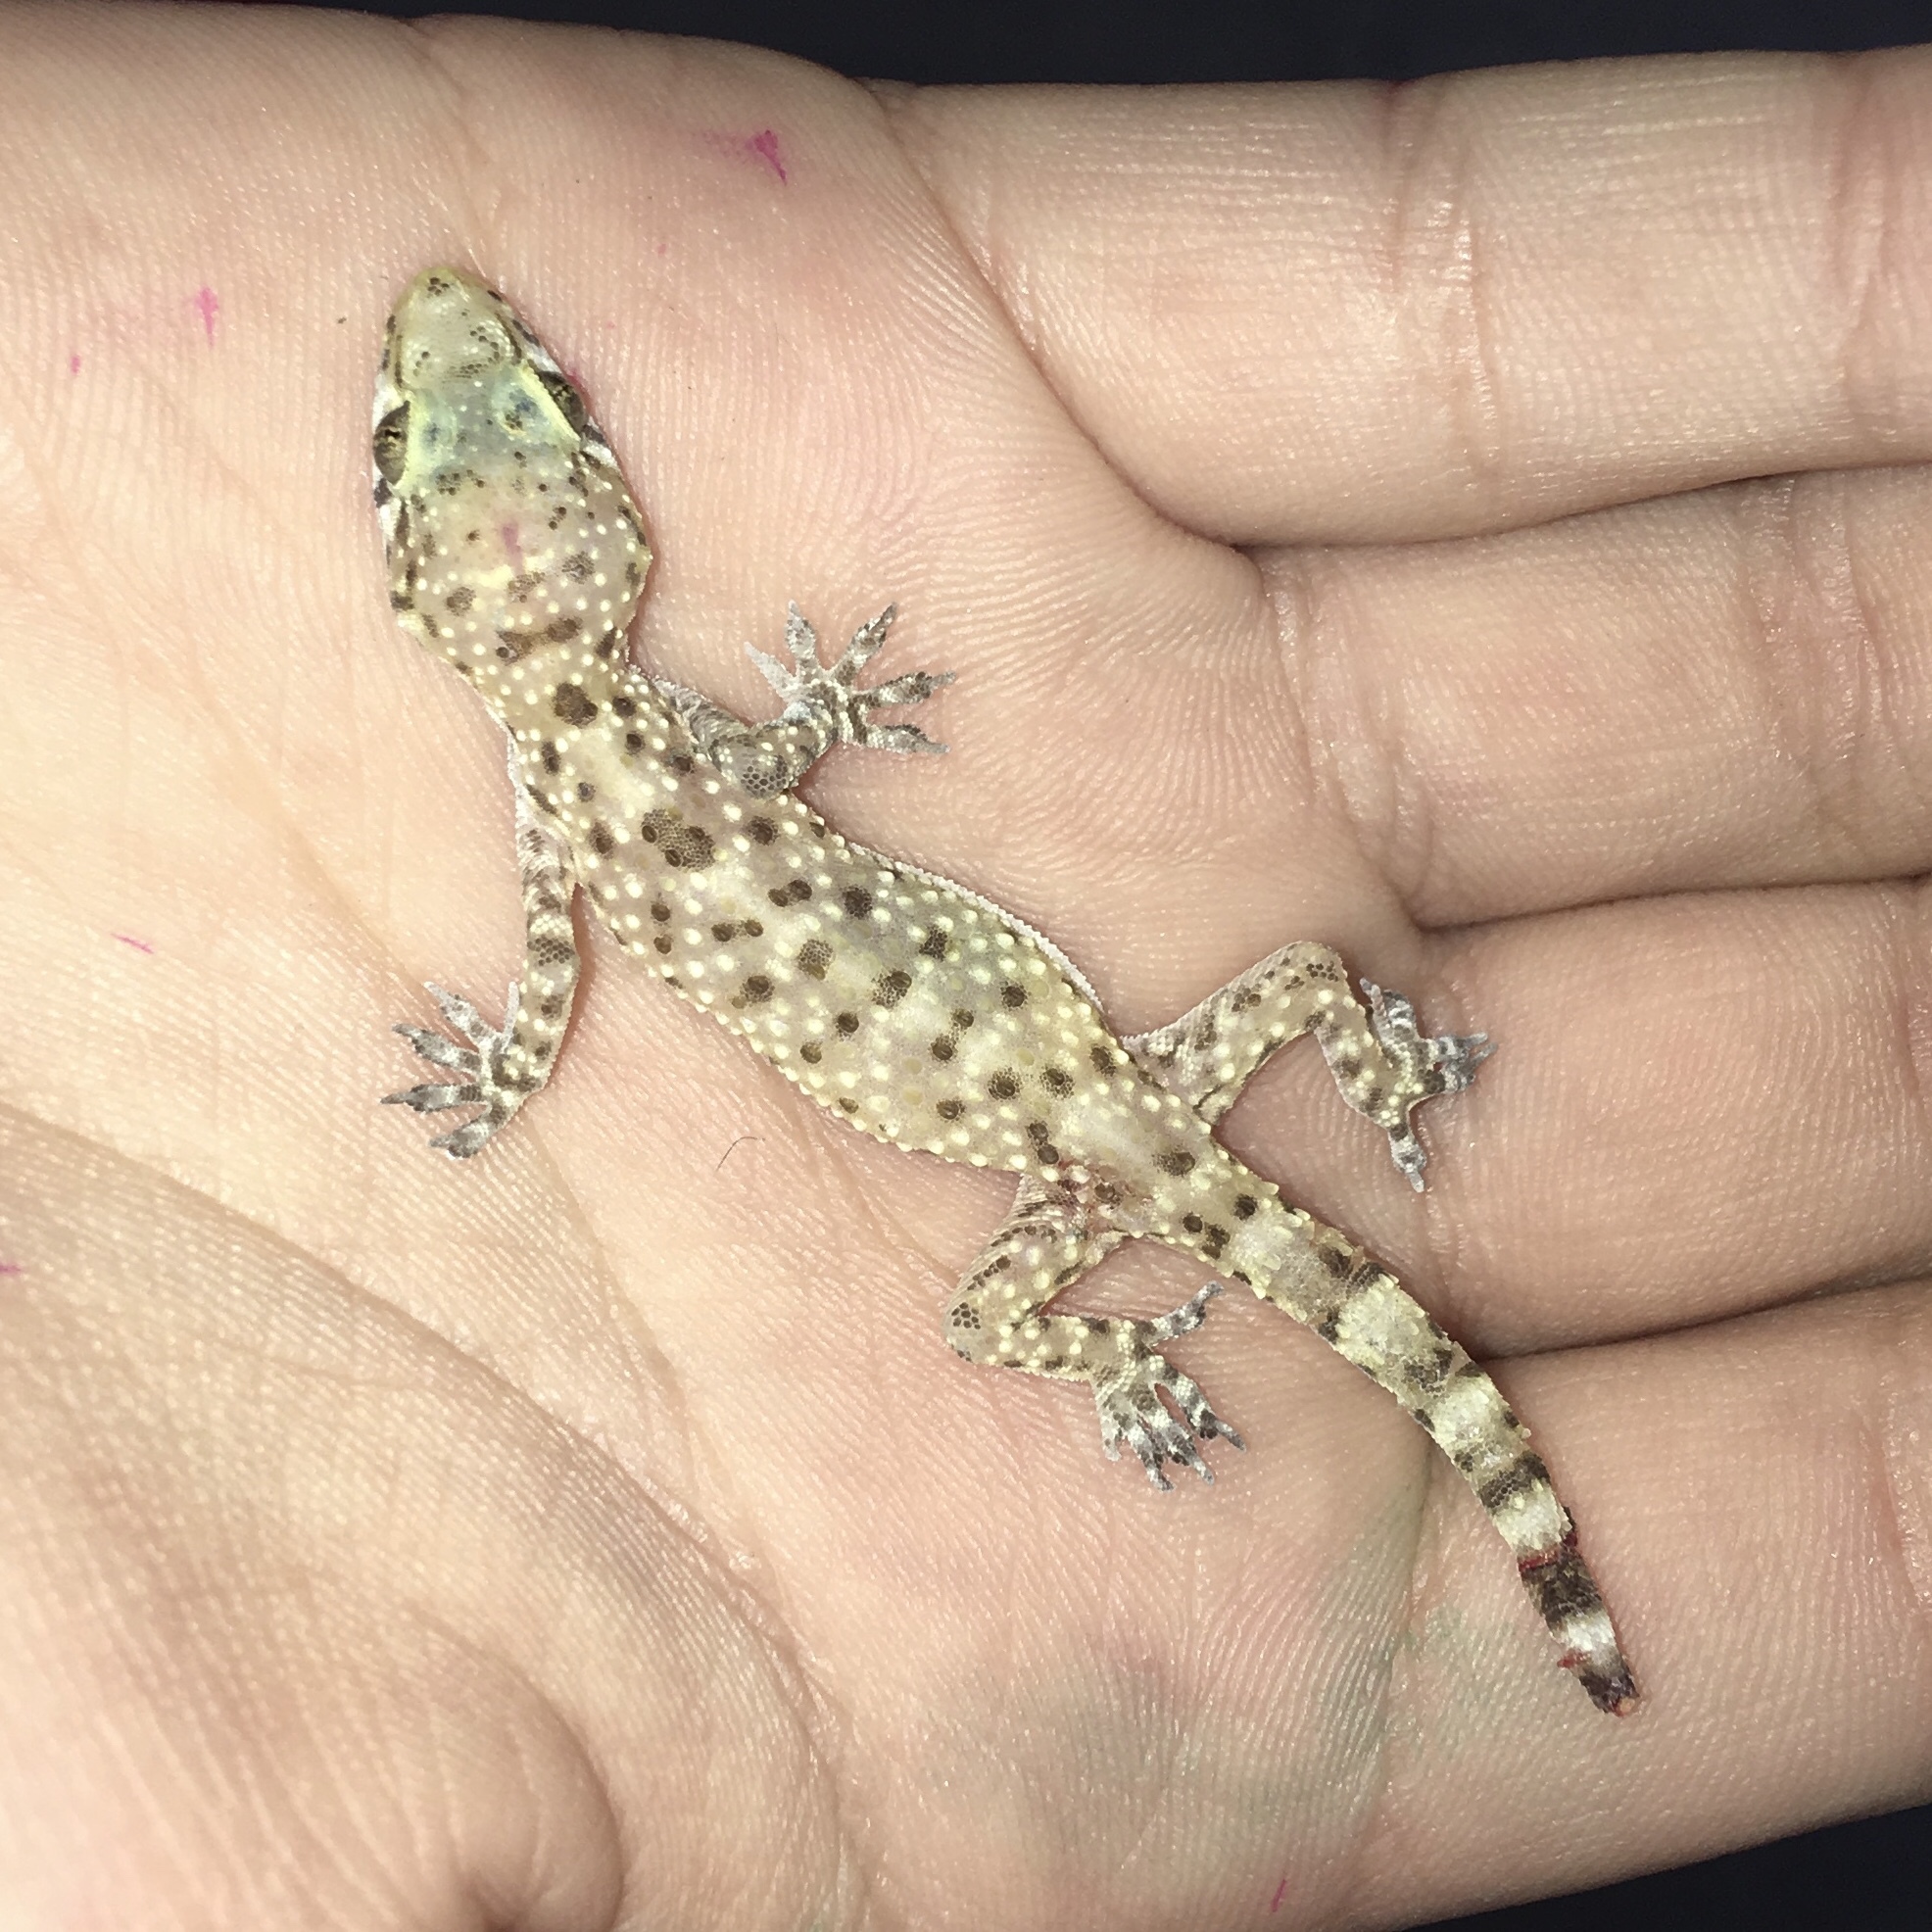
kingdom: Animalia
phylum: Chordata
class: Squamata
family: Gekkonidae
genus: Hemidactylus
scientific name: Hemidactylus turcicus
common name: Turkish gecko
